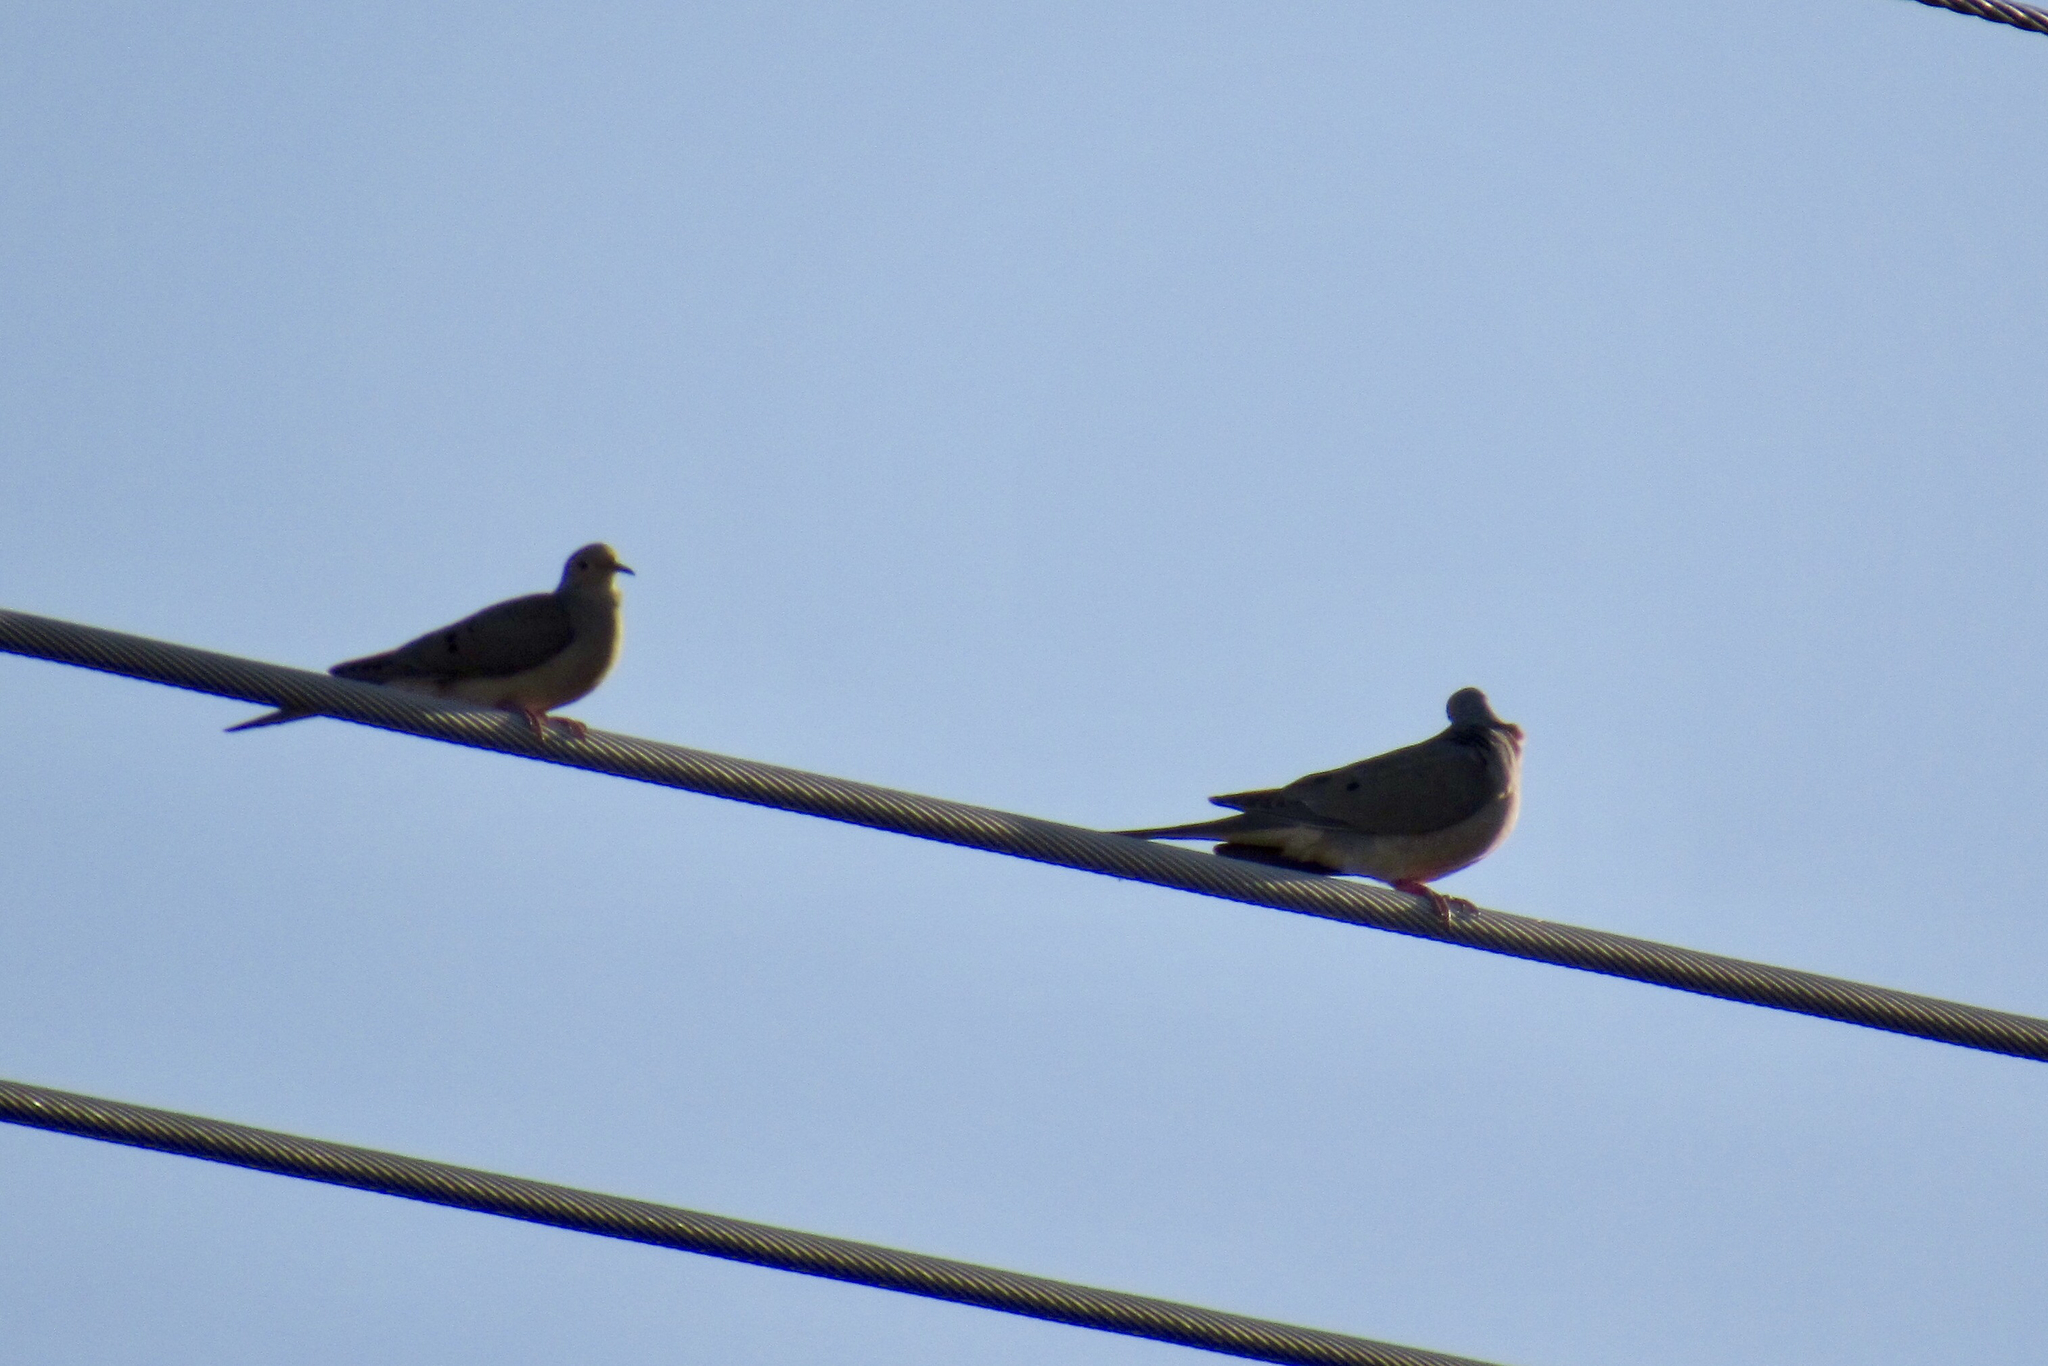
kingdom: Animalia
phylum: Chordata
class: Aves
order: Columbiformes
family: Columbidae
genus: Zenaida
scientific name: Zenaida macroura
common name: Mourning dove
